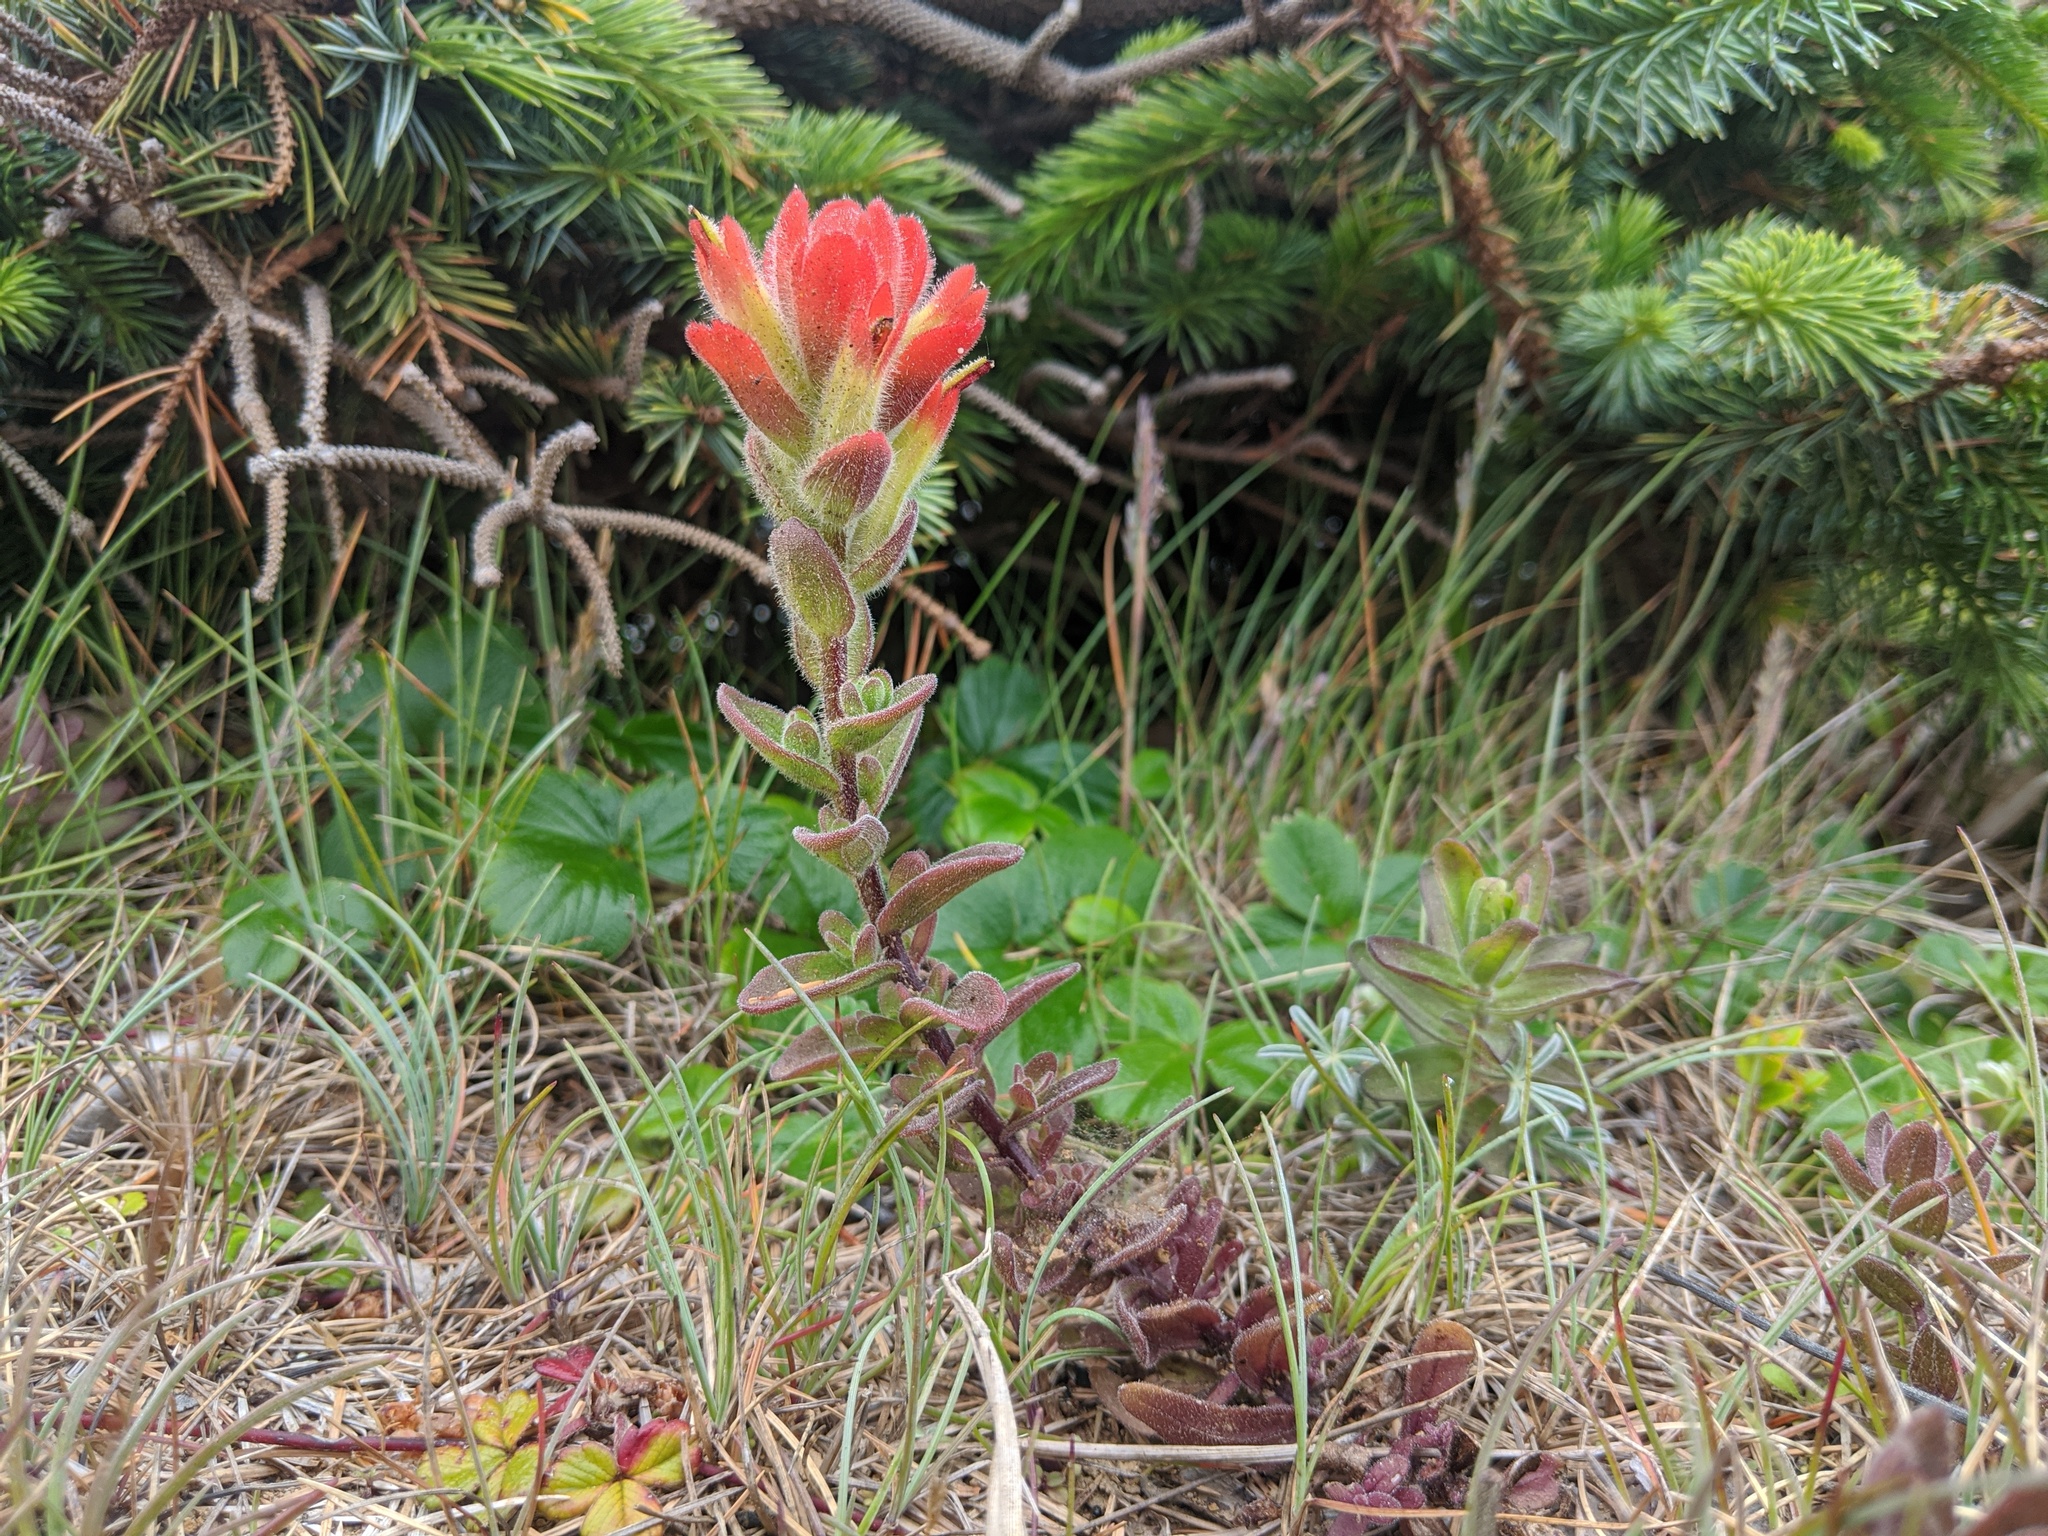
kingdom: Plantae
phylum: Tracheophyta
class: Magnoliopsida
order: Lamiales
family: Orobanchaceae
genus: Castilleja
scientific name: Castilleja mendocinensis
